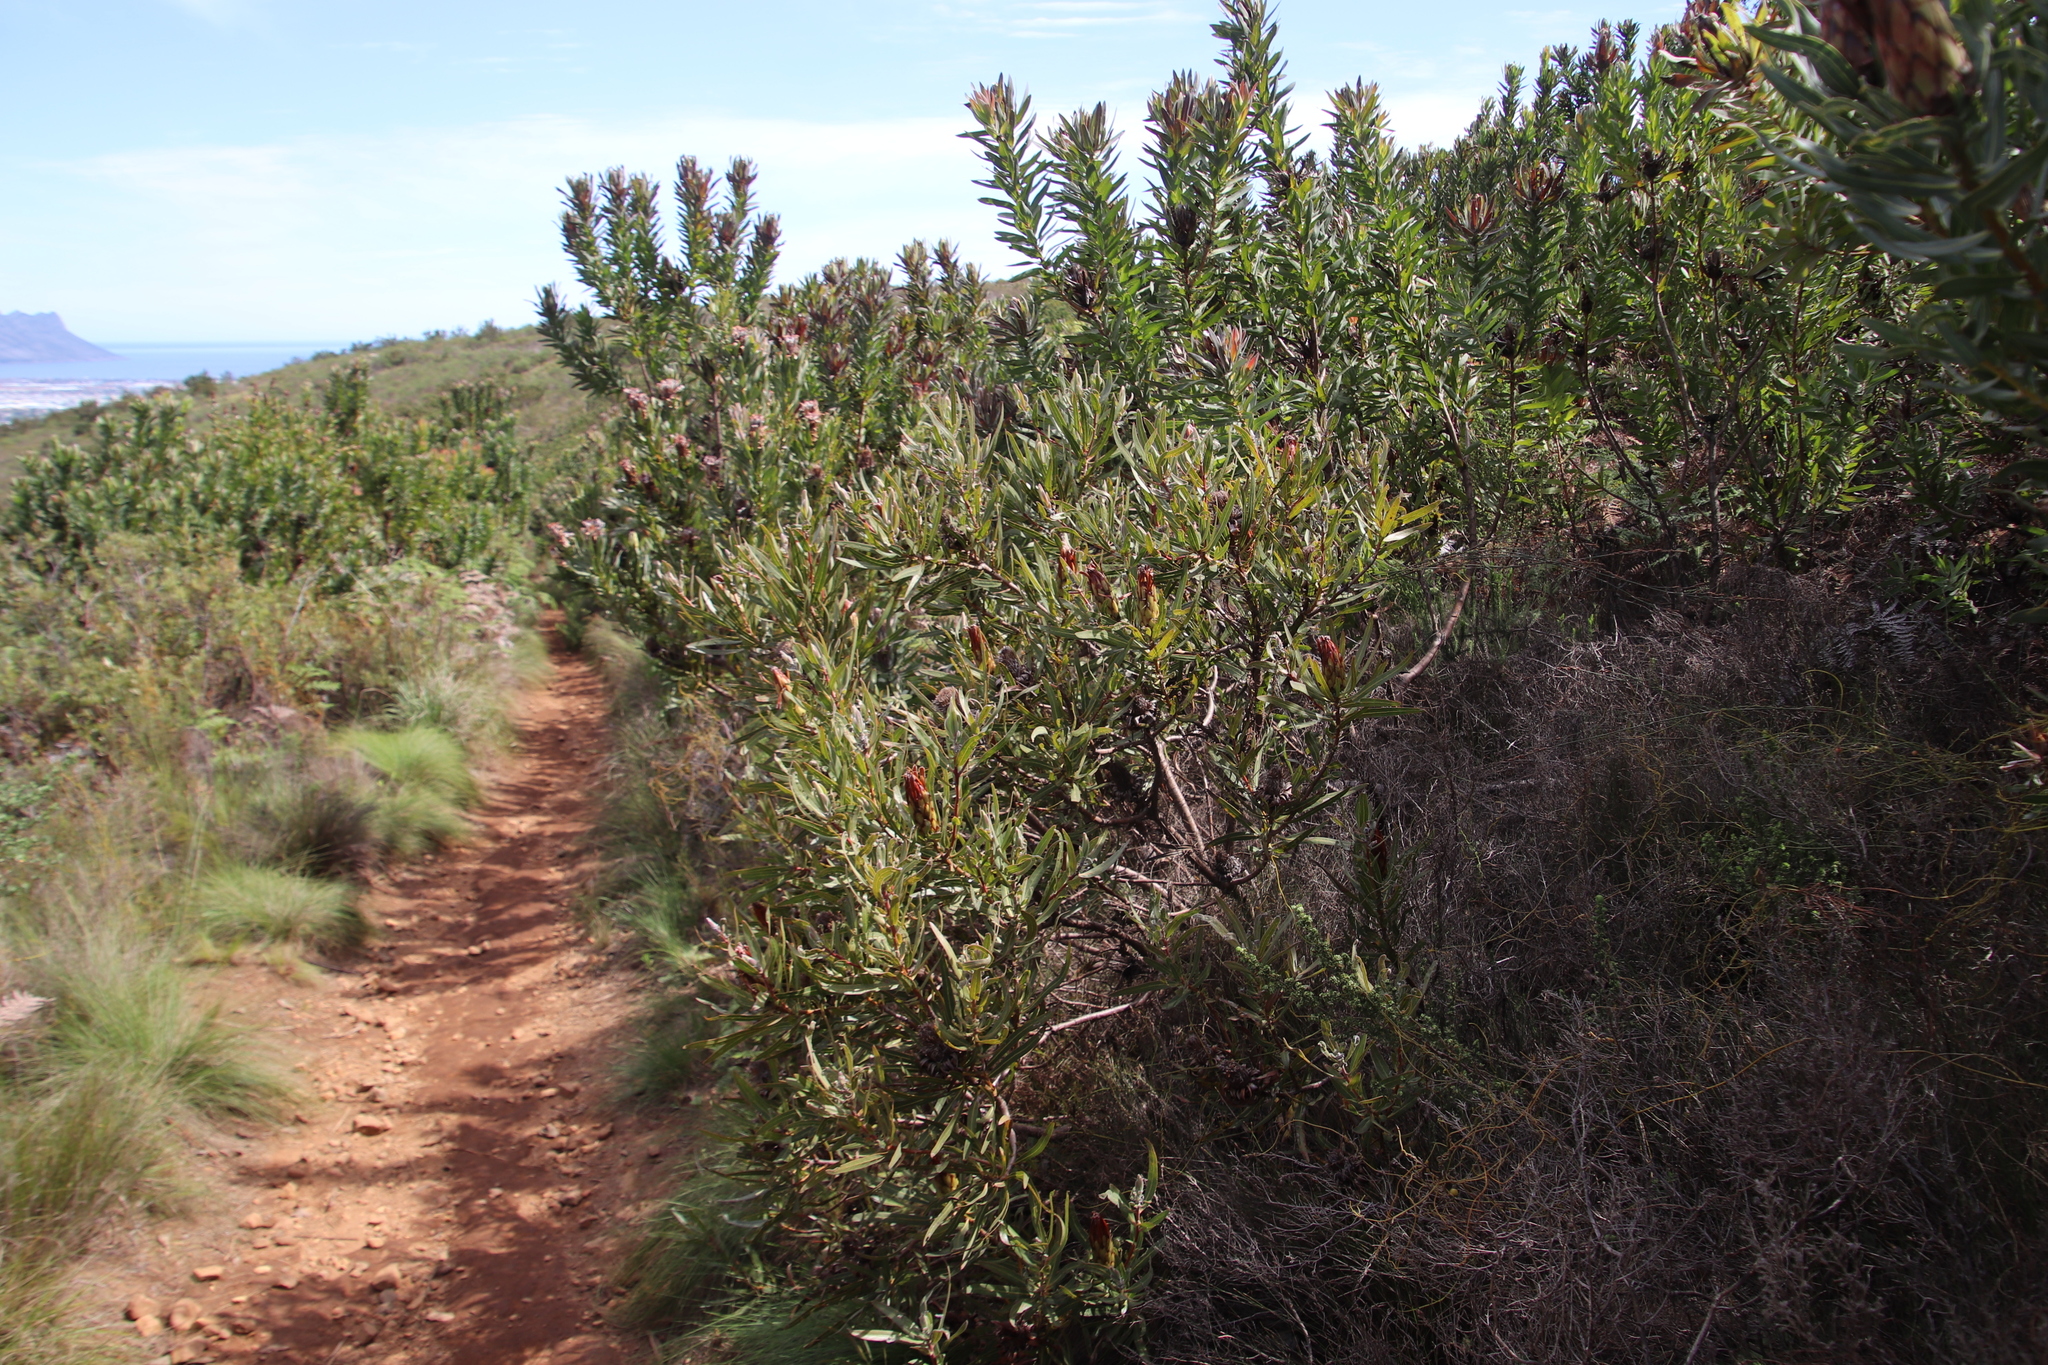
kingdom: Plantae
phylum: Tracheophyta
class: Magnoliopsida
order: Proteales
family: Proteaceae
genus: Protea
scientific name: Protea burchellii
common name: Burchell's sugarbush
